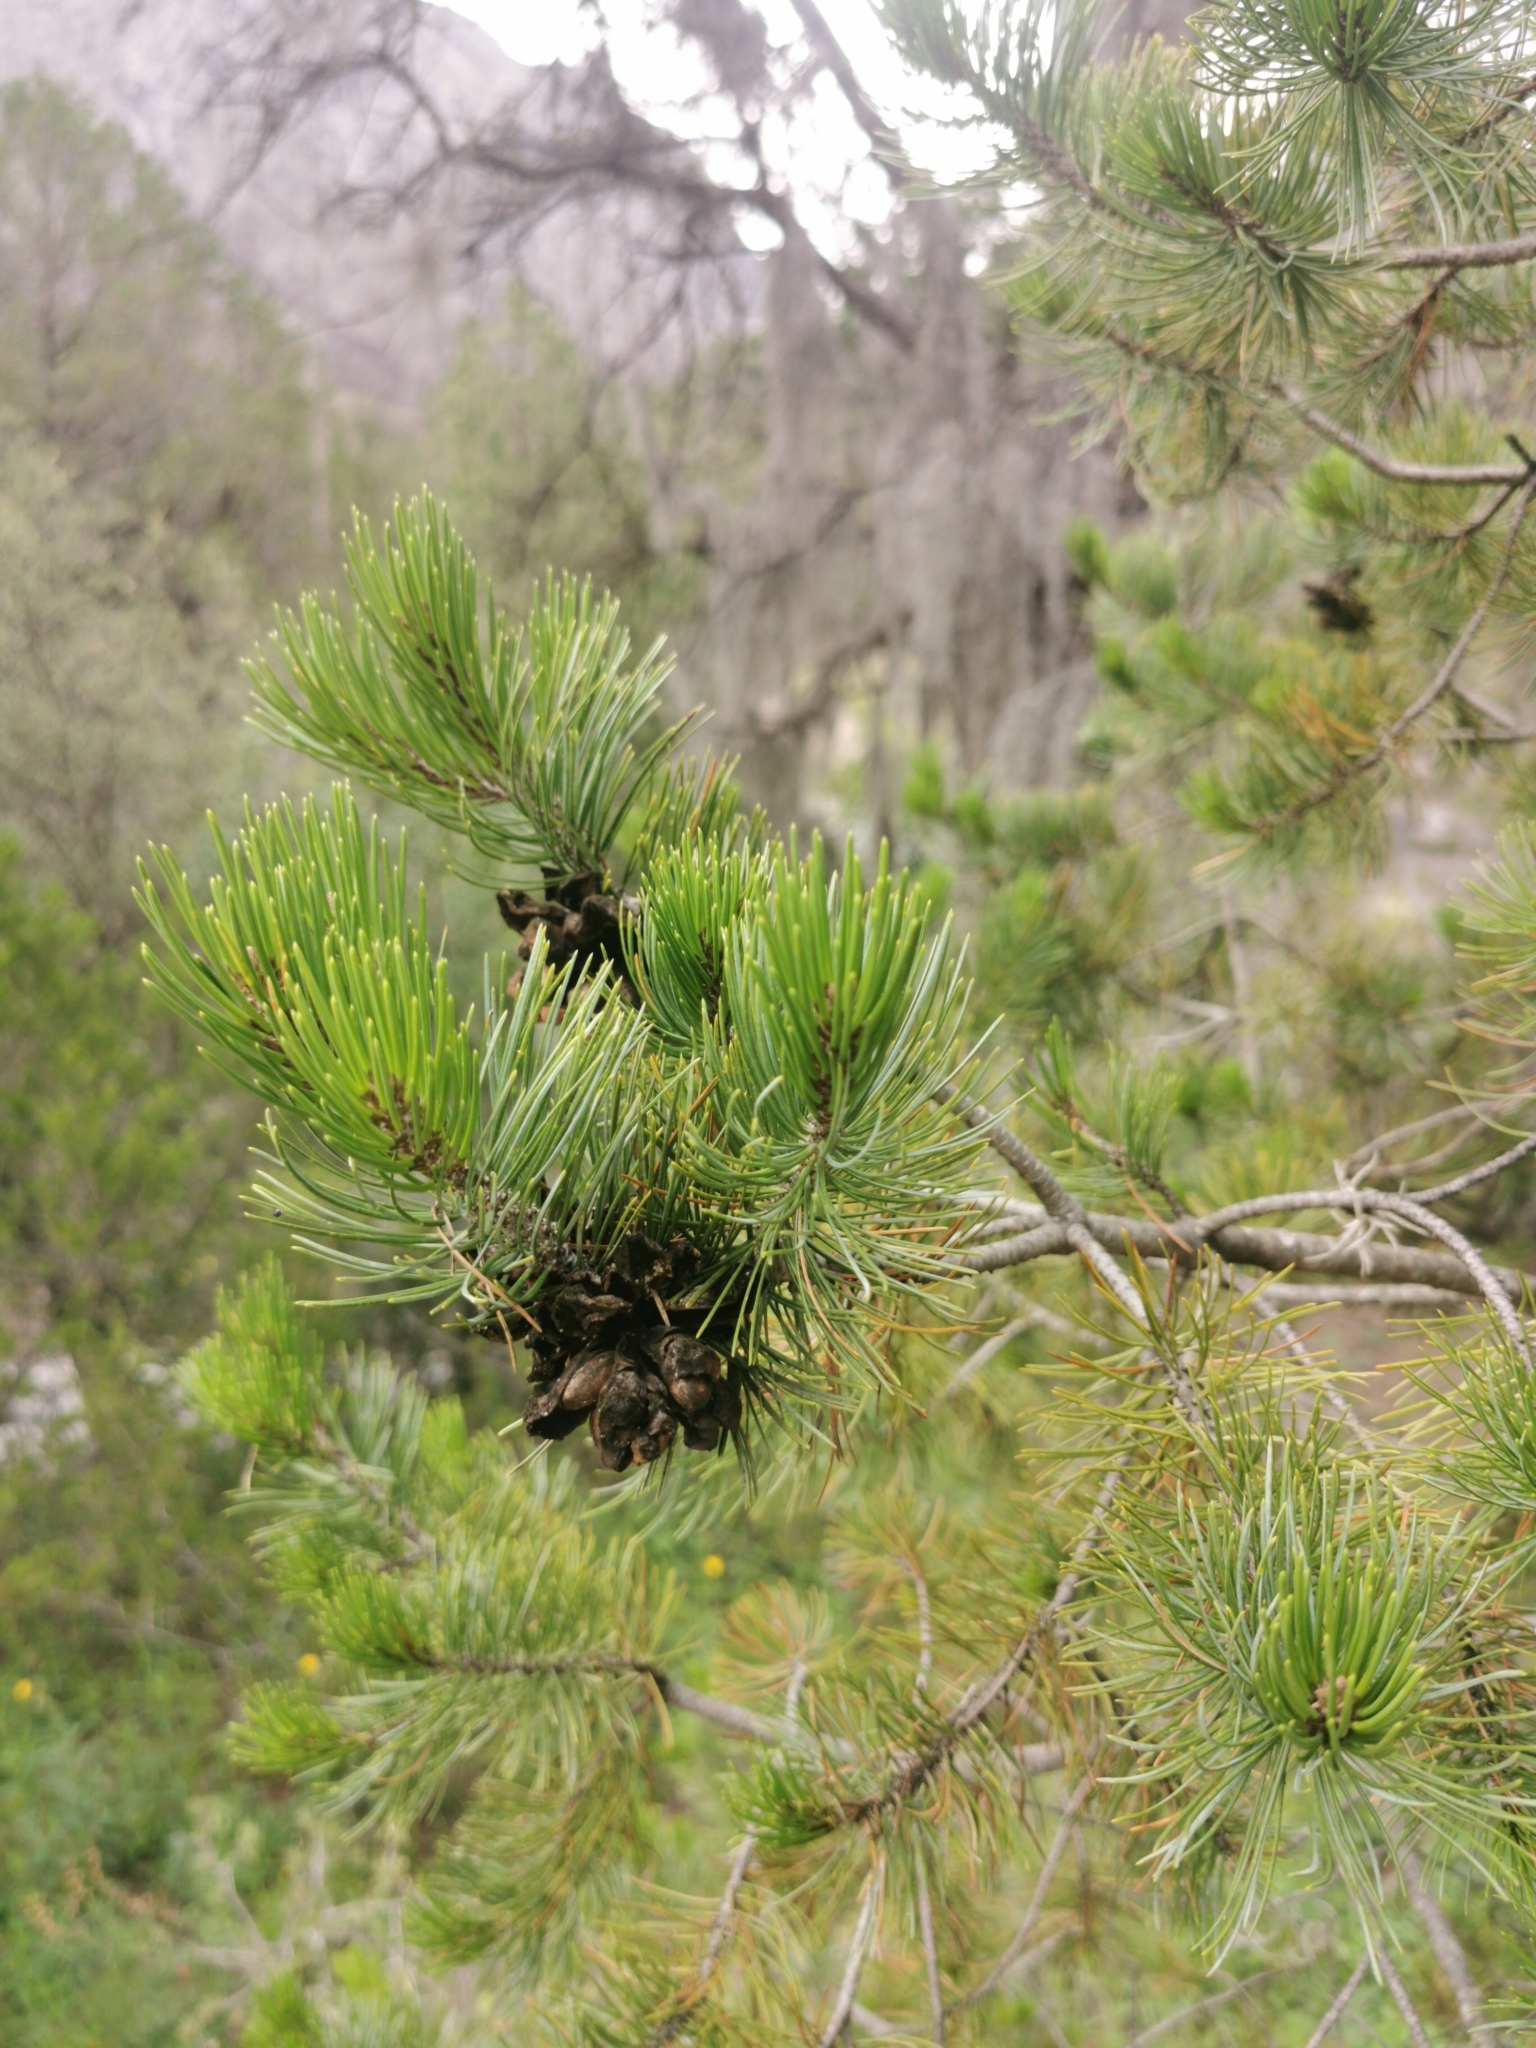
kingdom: Plantae
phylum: Tracheophyta
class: Pinopsida
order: Pinales
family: Pinaceae
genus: Pinus
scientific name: Pinus cembroides
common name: Mexican nut pine
